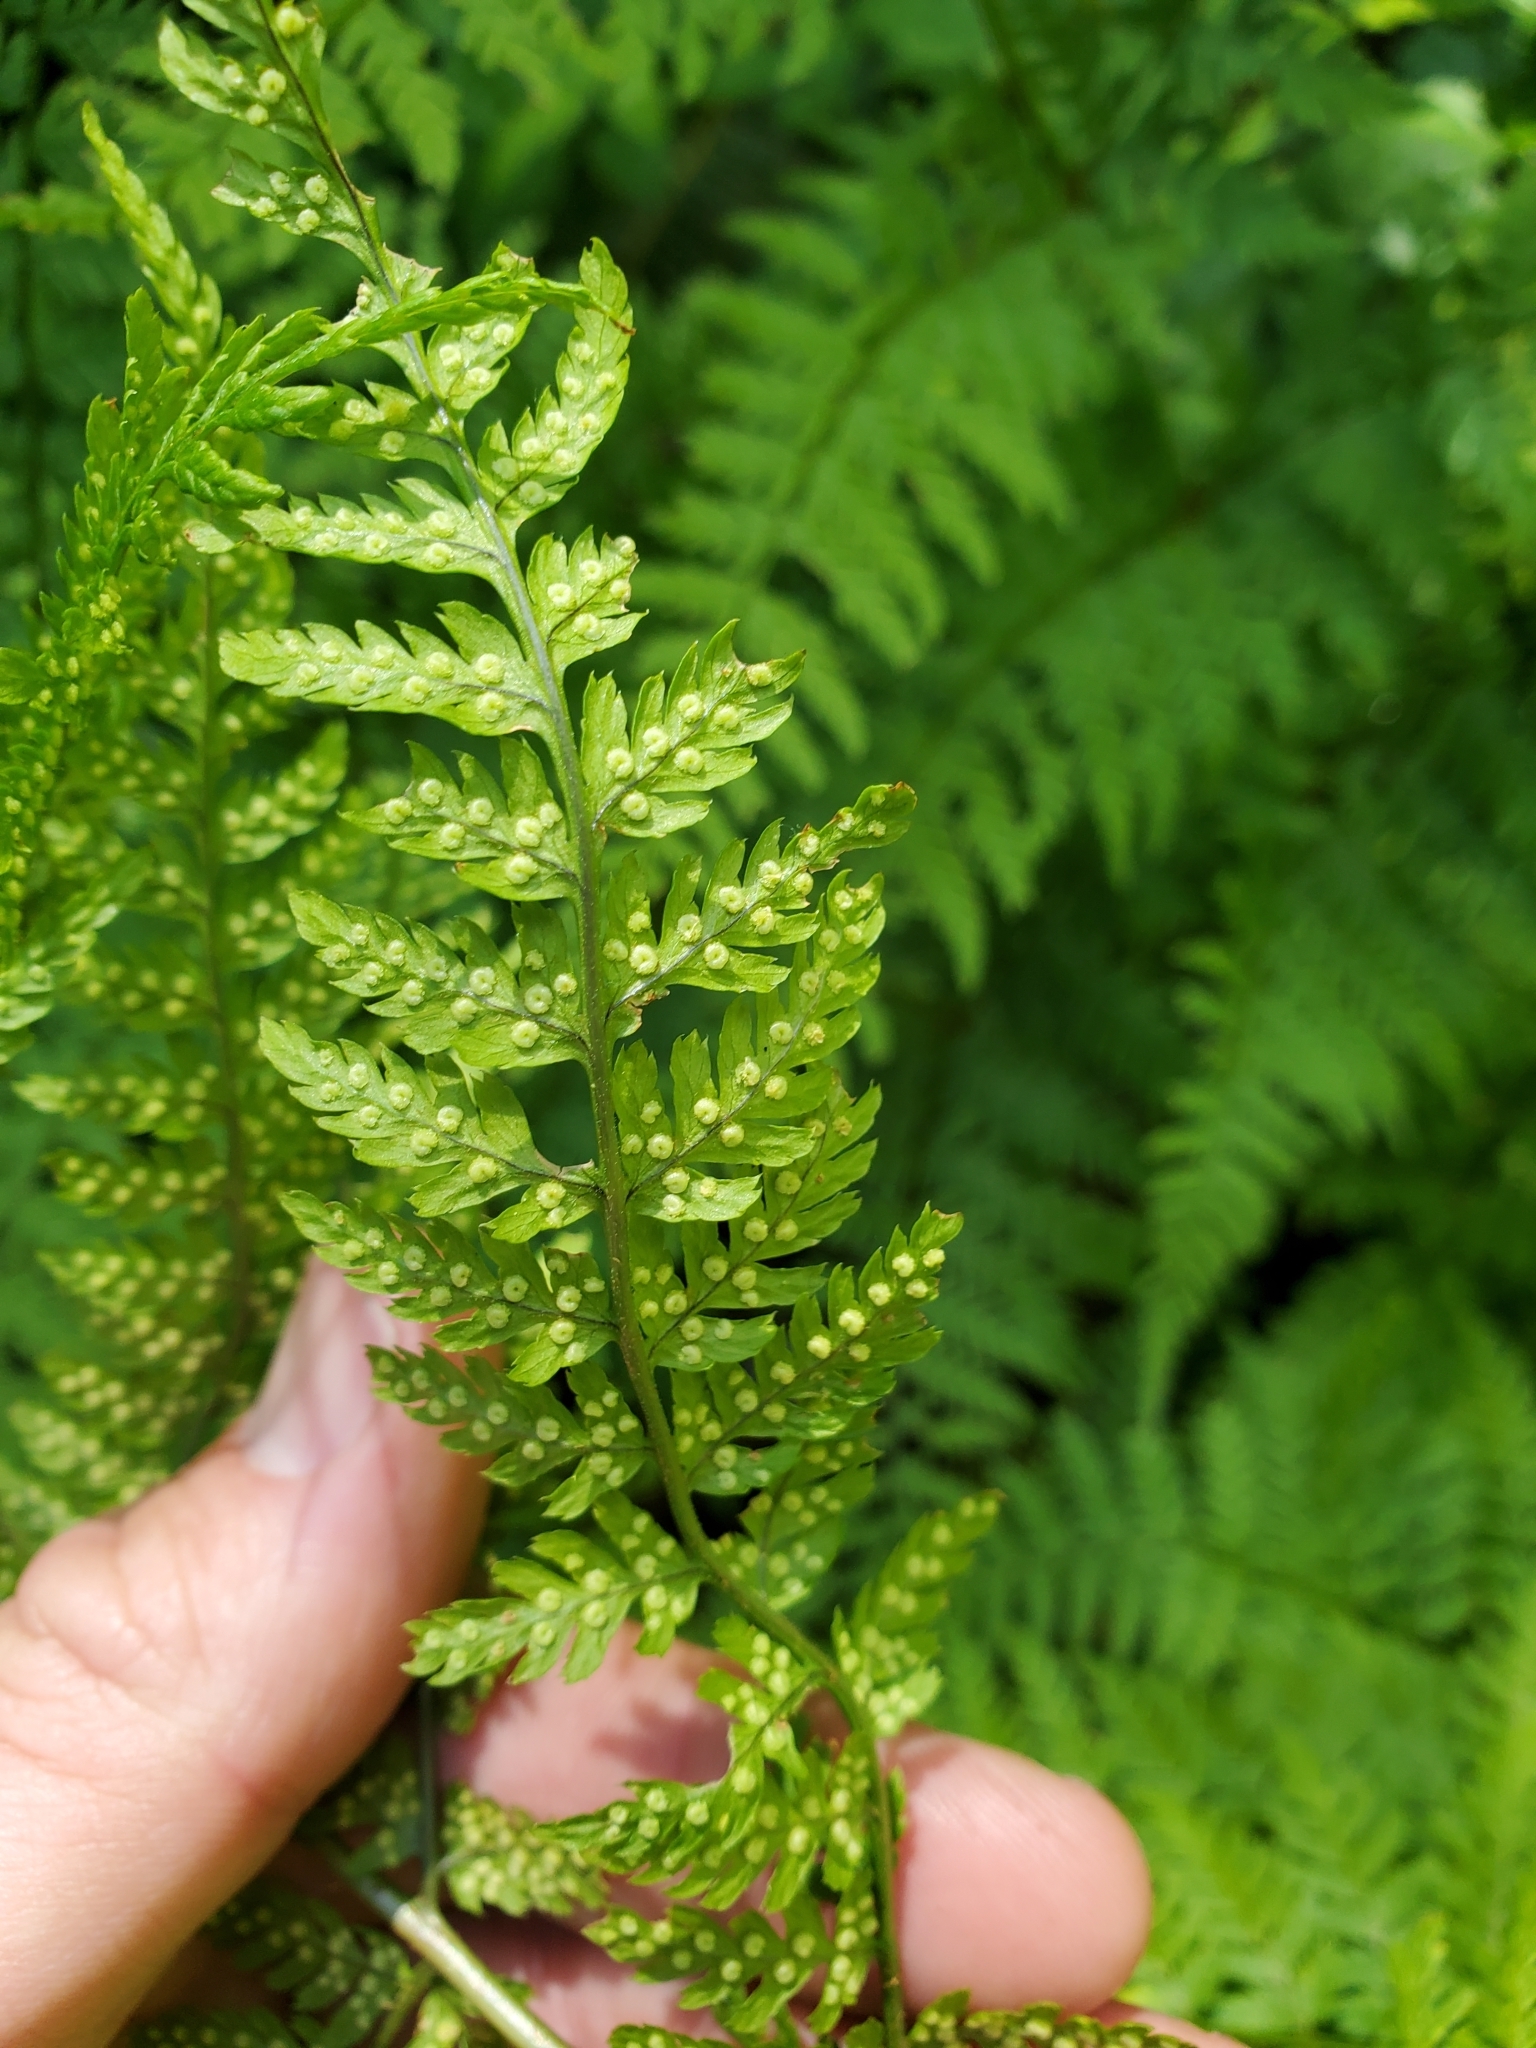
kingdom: Plantae
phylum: Tracheophyta
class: Polypodiopsida
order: Polypodiales
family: Dryopteridaceae
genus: Dryopteris
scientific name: Dryopteris expansa
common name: Northern buckler fern
